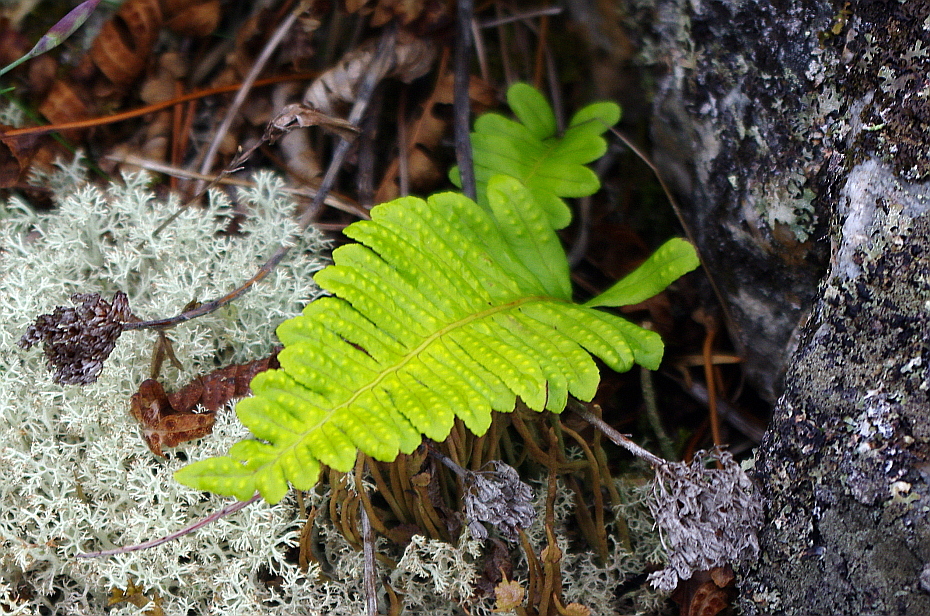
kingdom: Plantae
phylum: Tracheophyta
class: Polypodiopsida
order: Polypodiales
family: Polypodiaceae
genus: Polypodium
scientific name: Polypodium vulgare
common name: Common polypody
